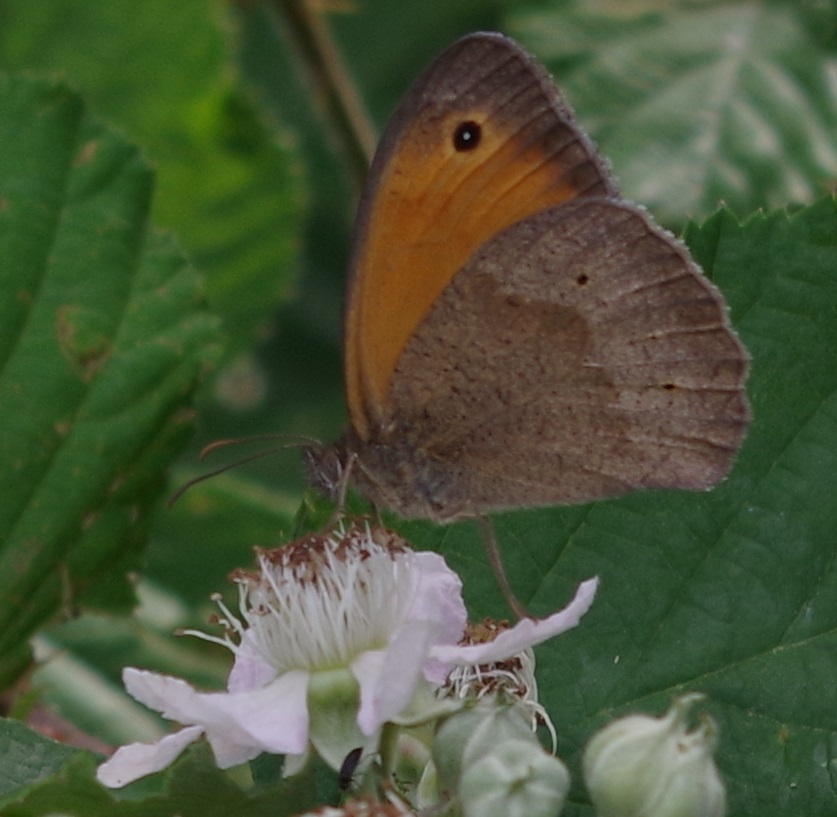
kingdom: Animalia
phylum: Arthropoda
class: Insecta
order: Lepidoptera
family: Nymphalidae
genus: Maniola
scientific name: Maniola jurtina
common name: Meadow brown
